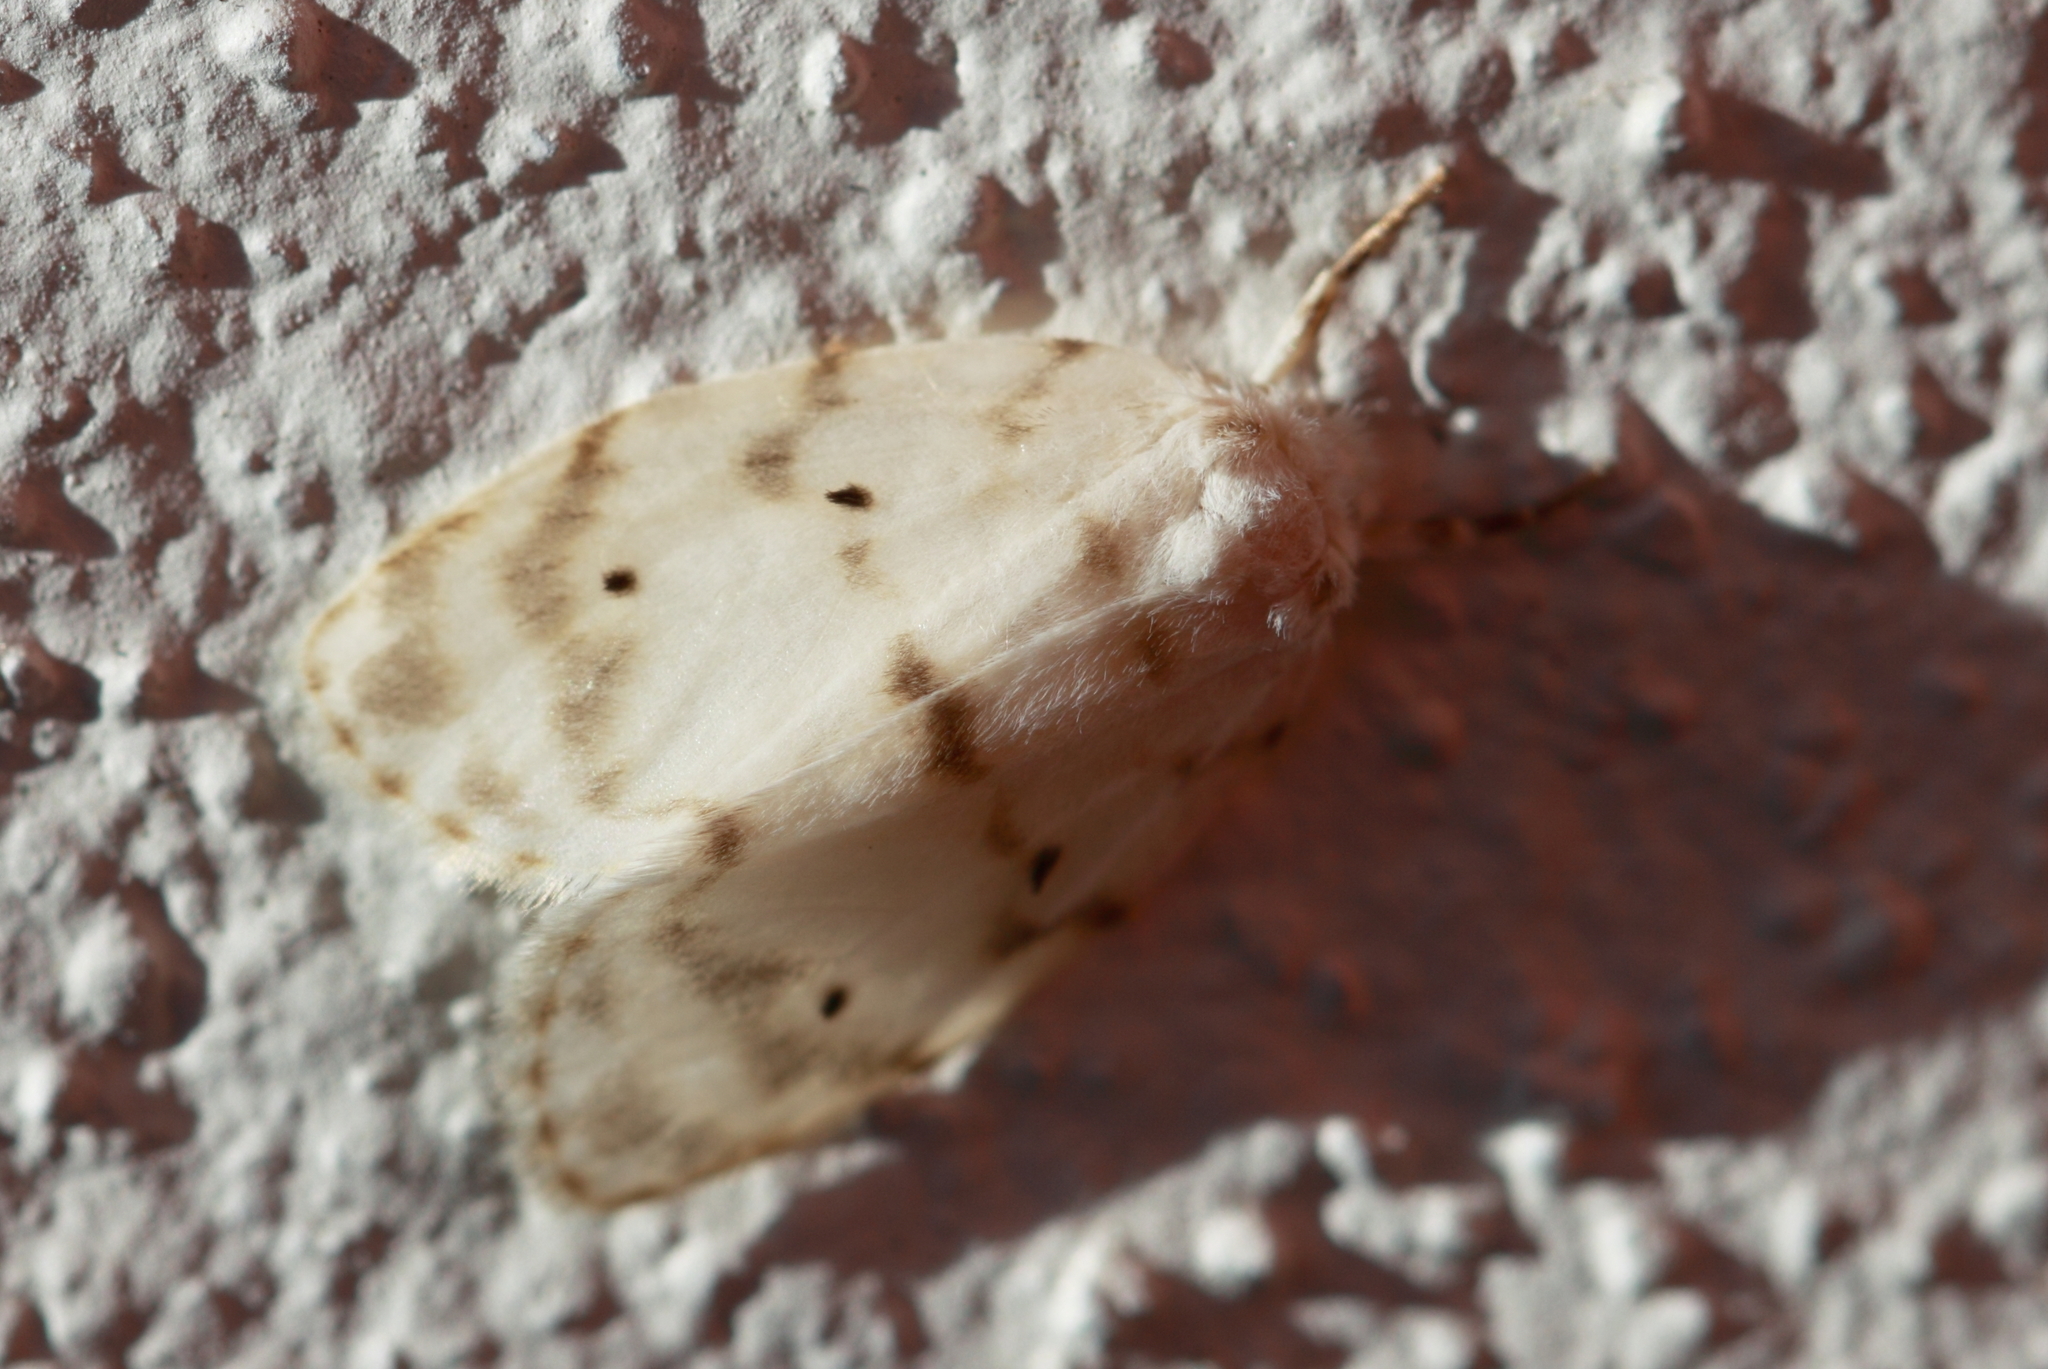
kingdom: Animalia
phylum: Arthropoda
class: Insecta
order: Lepidoptera
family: Erebidae
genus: Schistophleps
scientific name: Schistophleps albida
